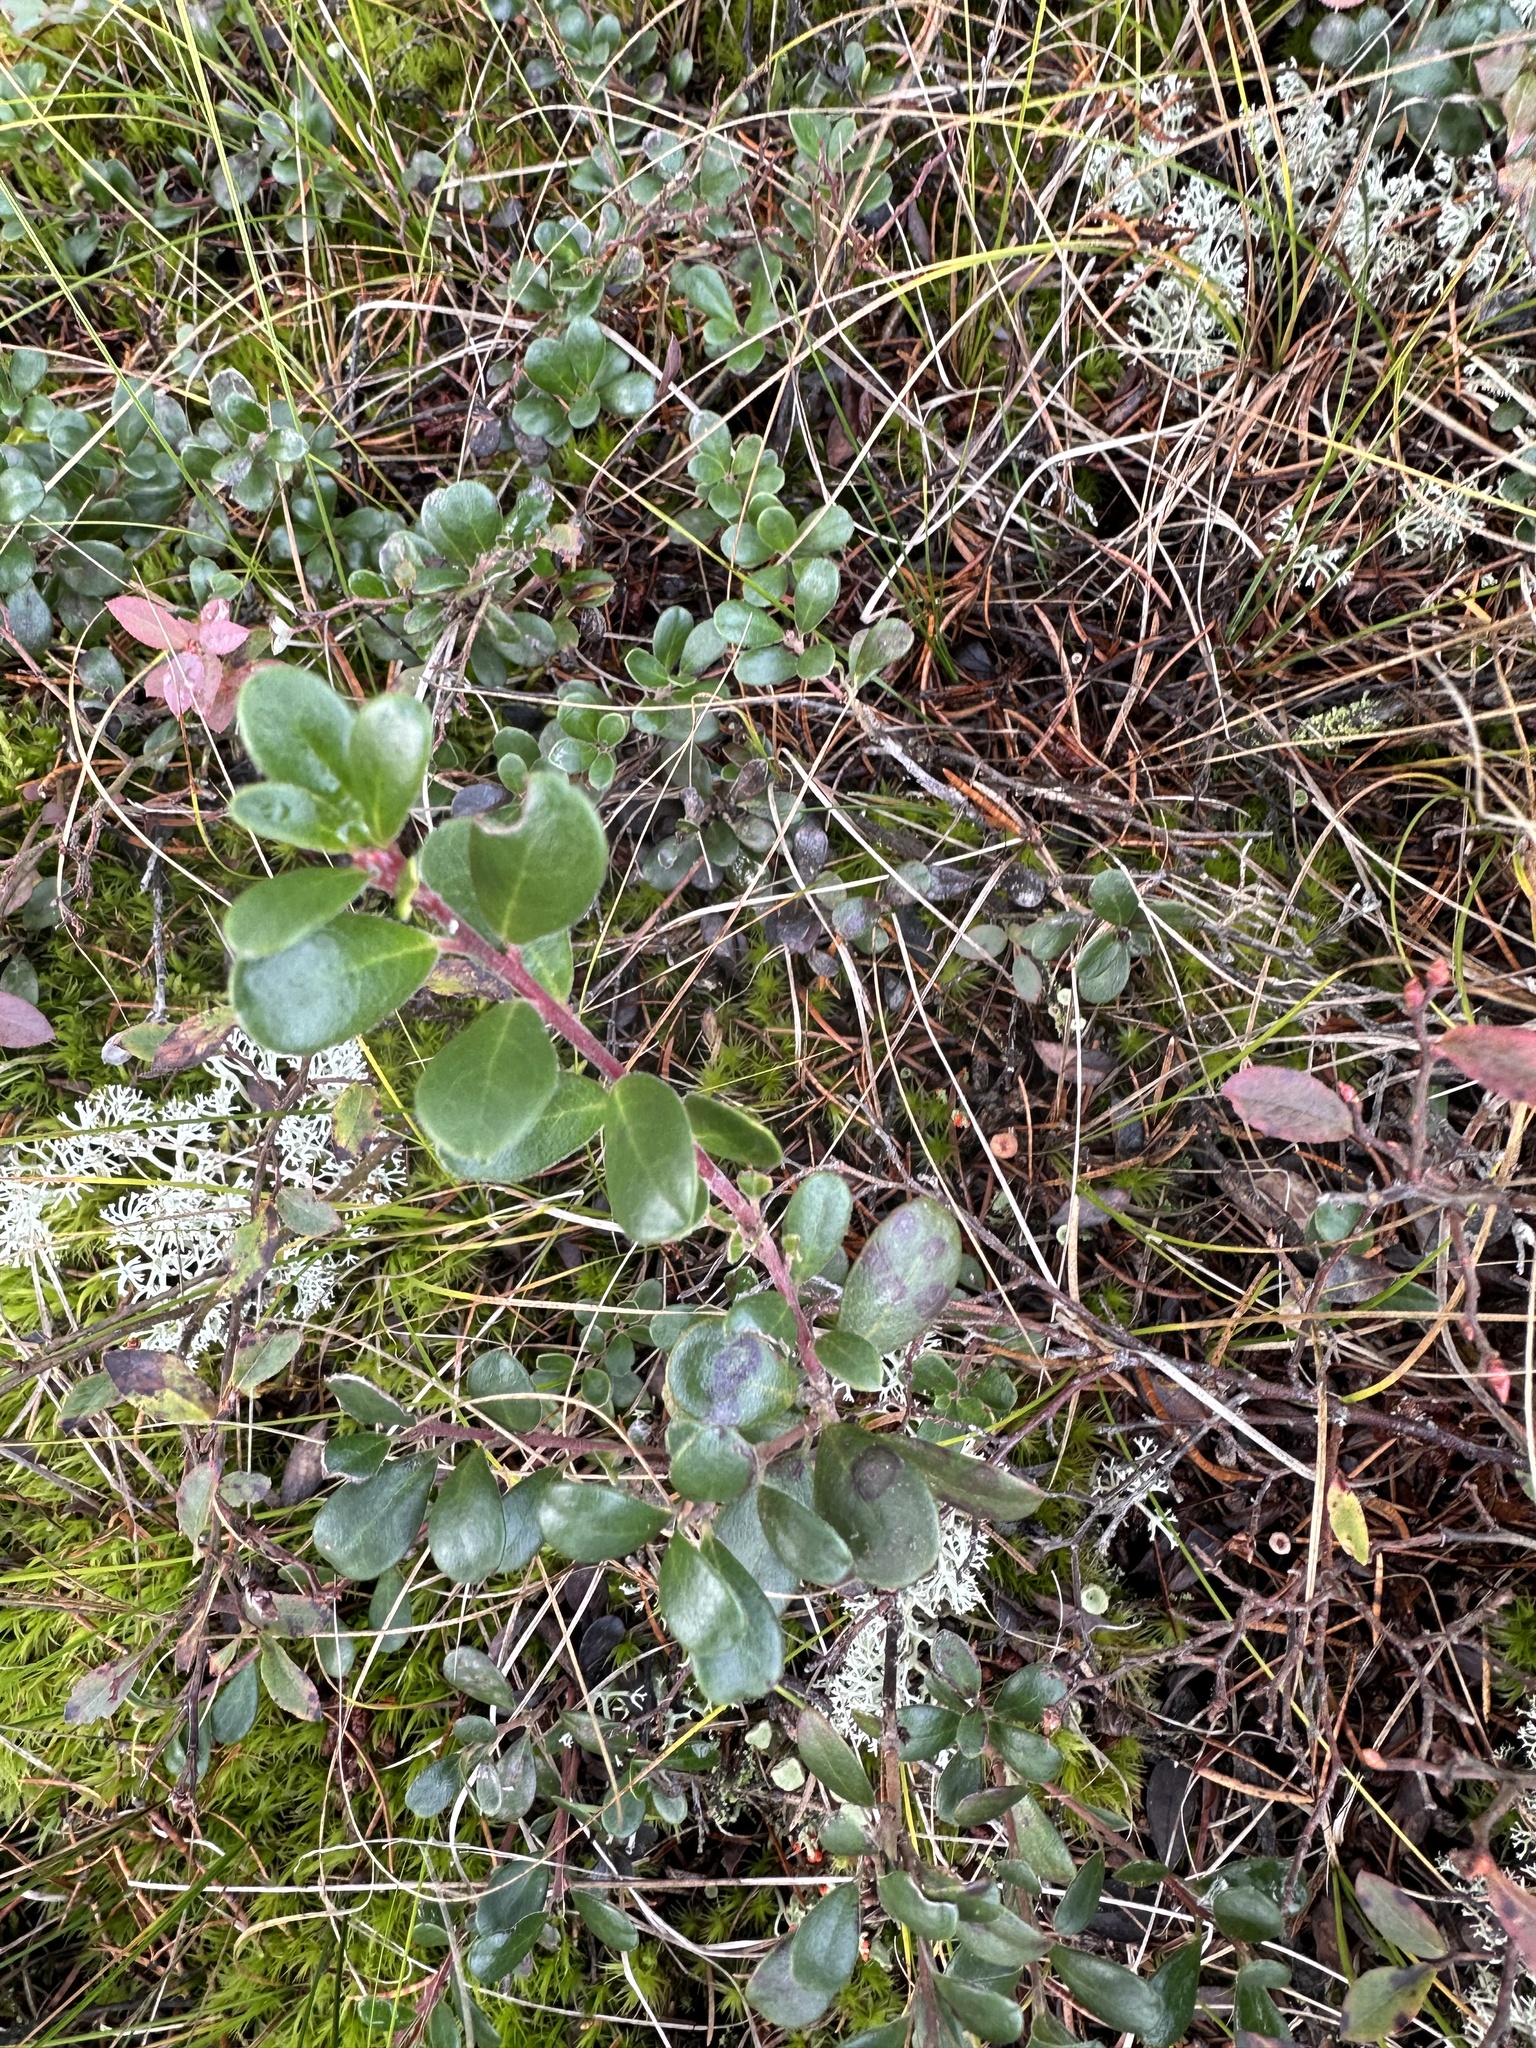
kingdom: Plantae
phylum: Tracheophyta
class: Magnoliopsida
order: Ericales
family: Ericaceae
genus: Arctostaphylos
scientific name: Arctostaphylos uva-ursi
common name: Bearberry
